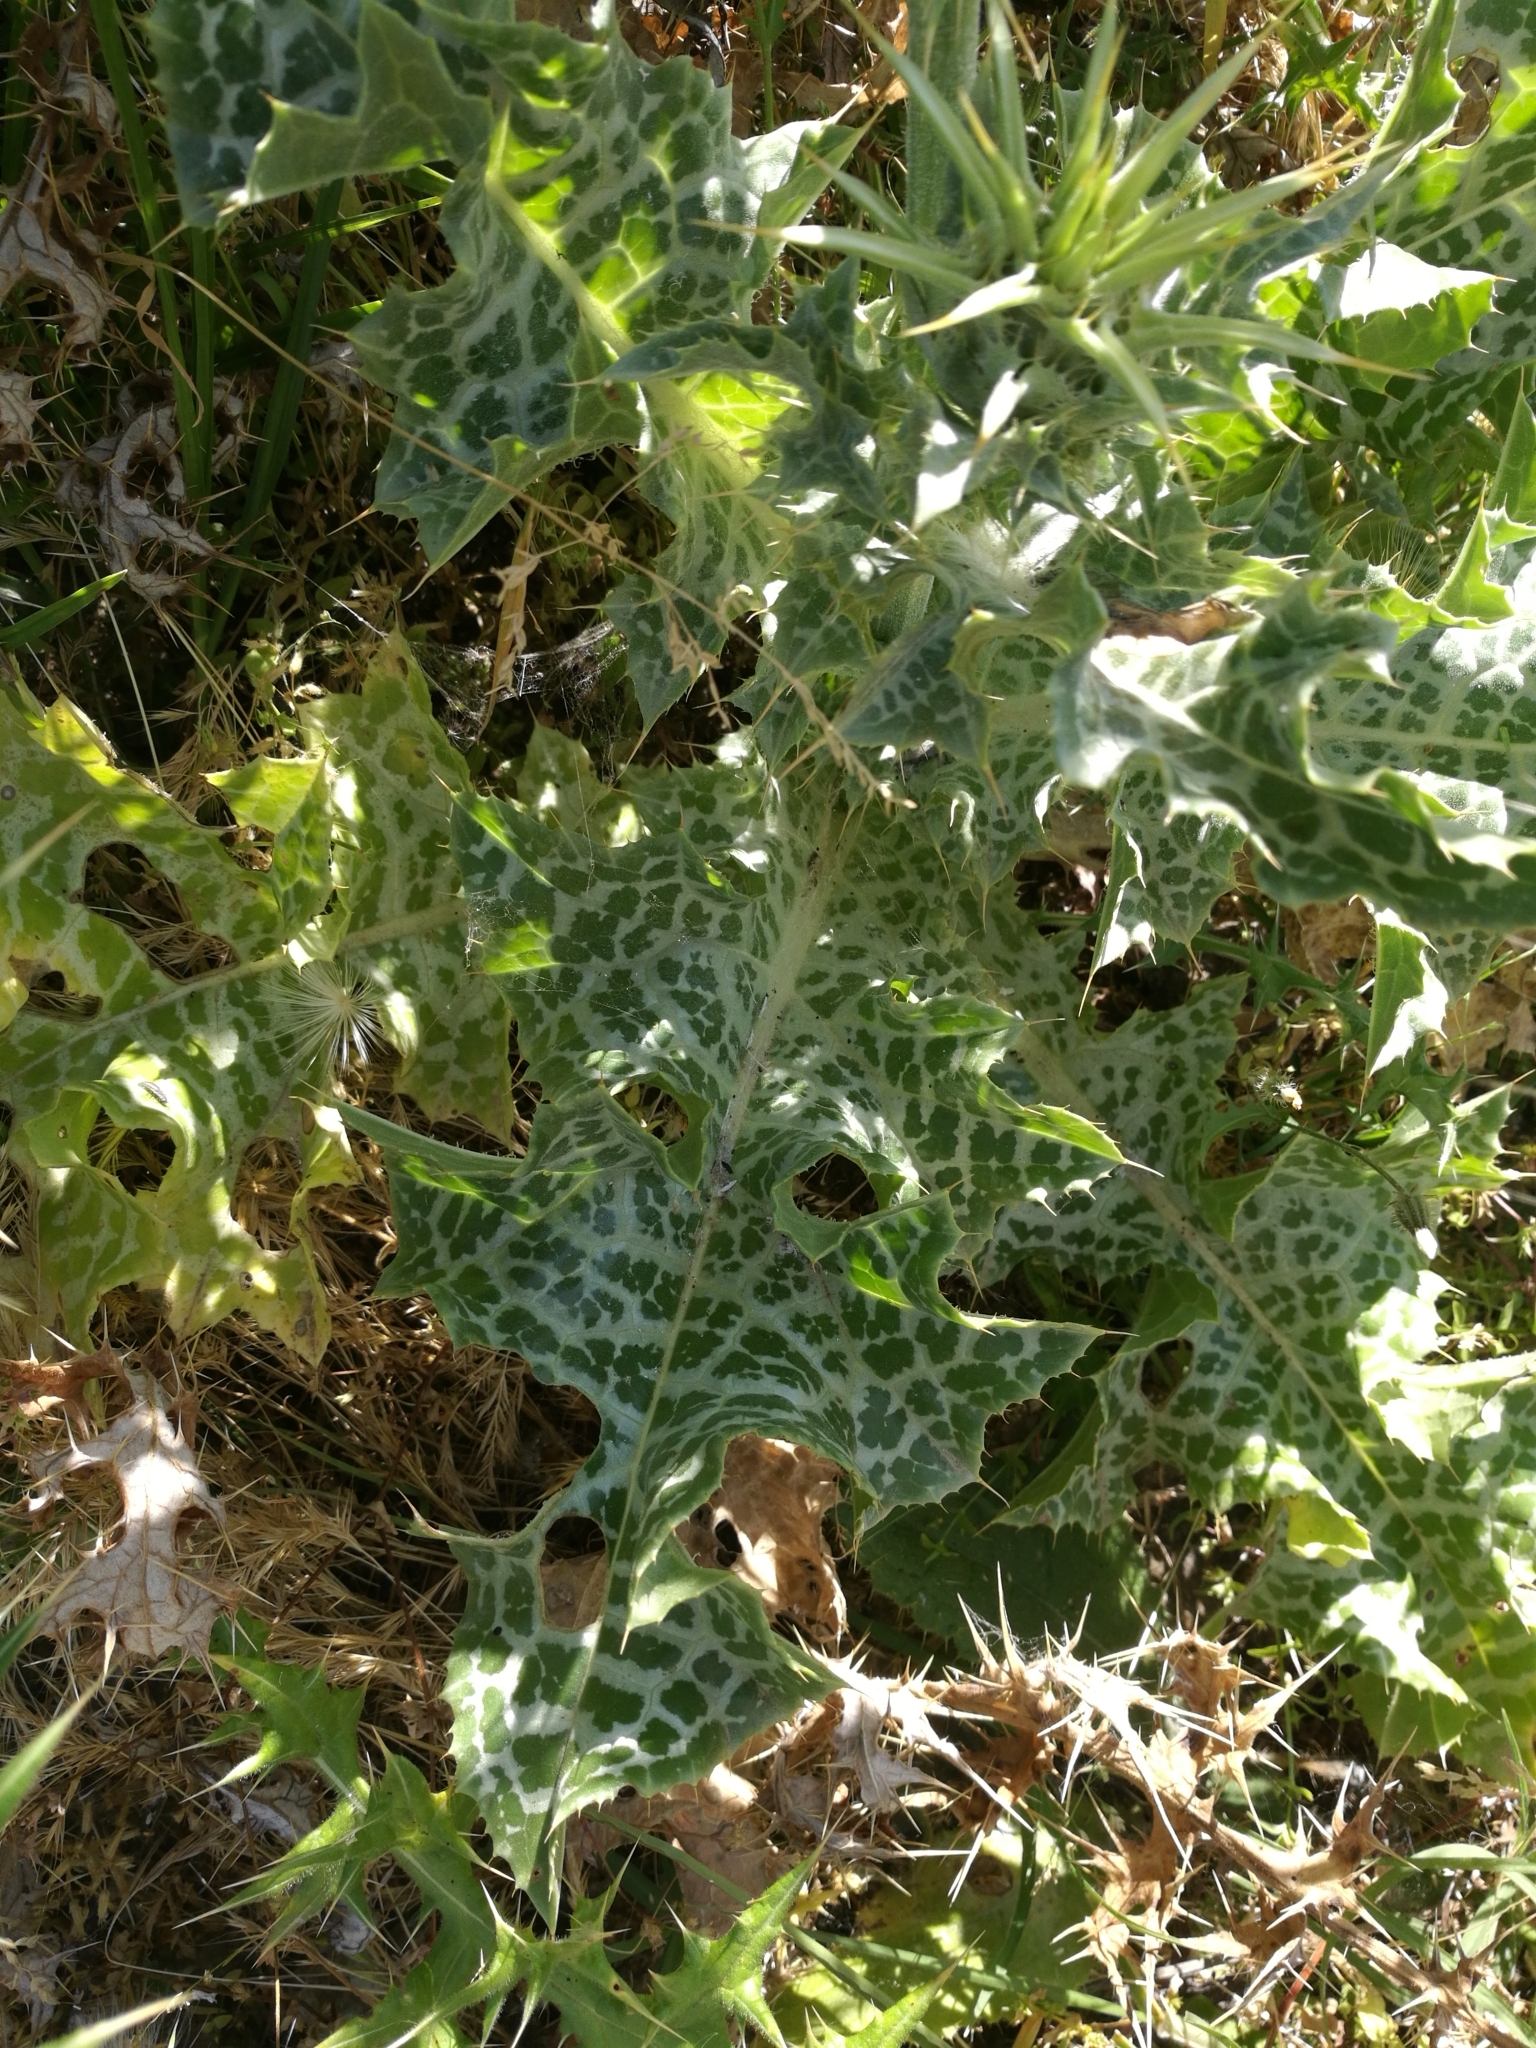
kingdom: Plantae
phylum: Tracheophyta
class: Magnoliopsida
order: Asterales
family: Asteraceae
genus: Silybum
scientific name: Silybum marianum
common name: Milk thistle
